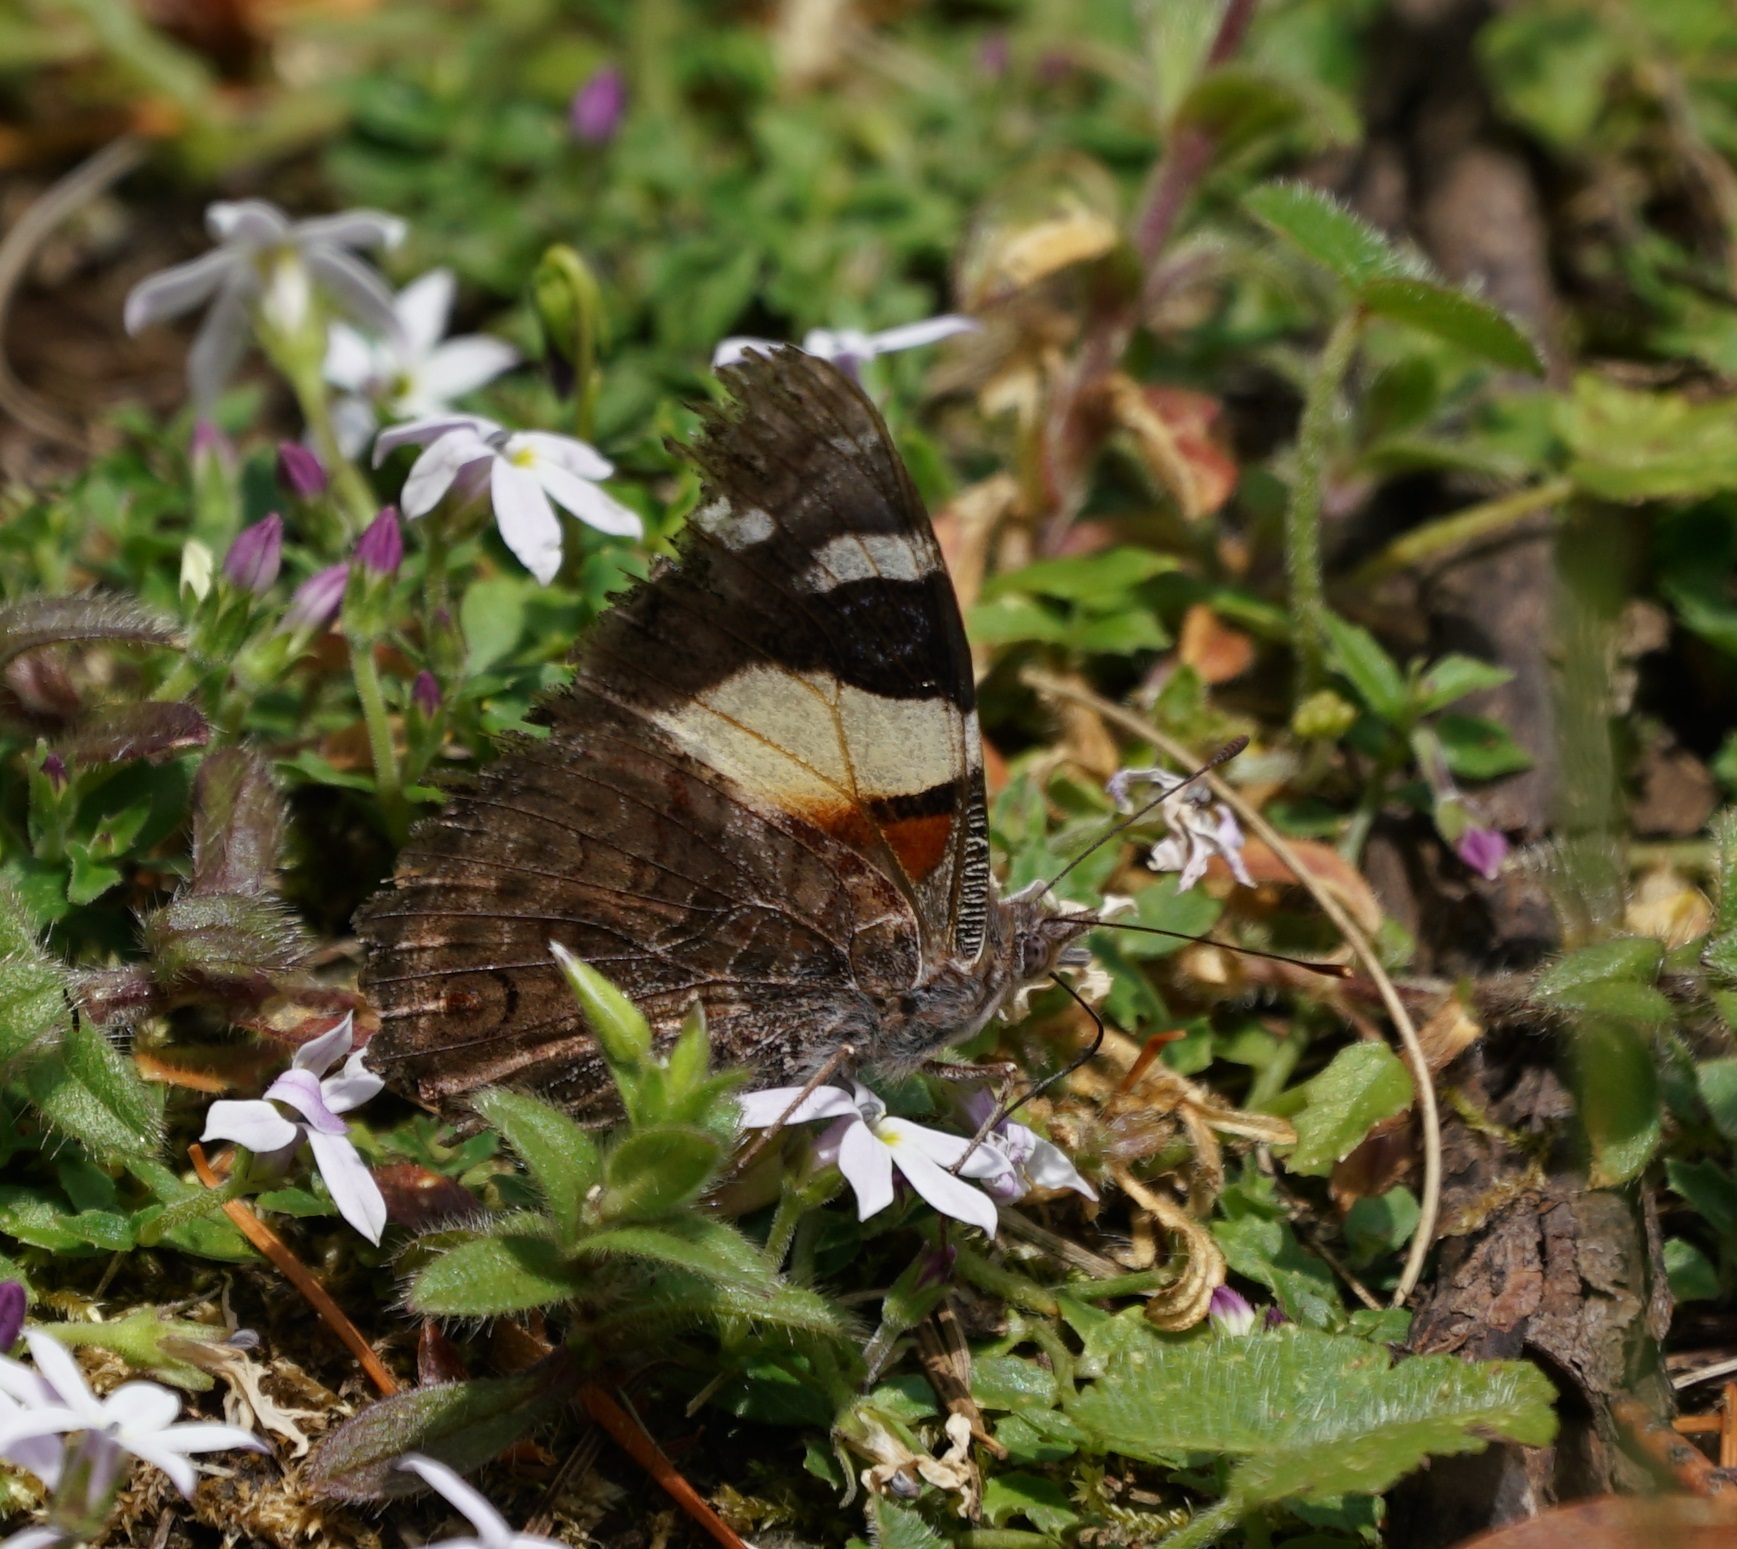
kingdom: Animalia
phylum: Arthropoda
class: Insecta
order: Lepidoptera
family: Nymphalidae
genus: Vanessa
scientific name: Vanessa itea
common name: Yellow admiral
